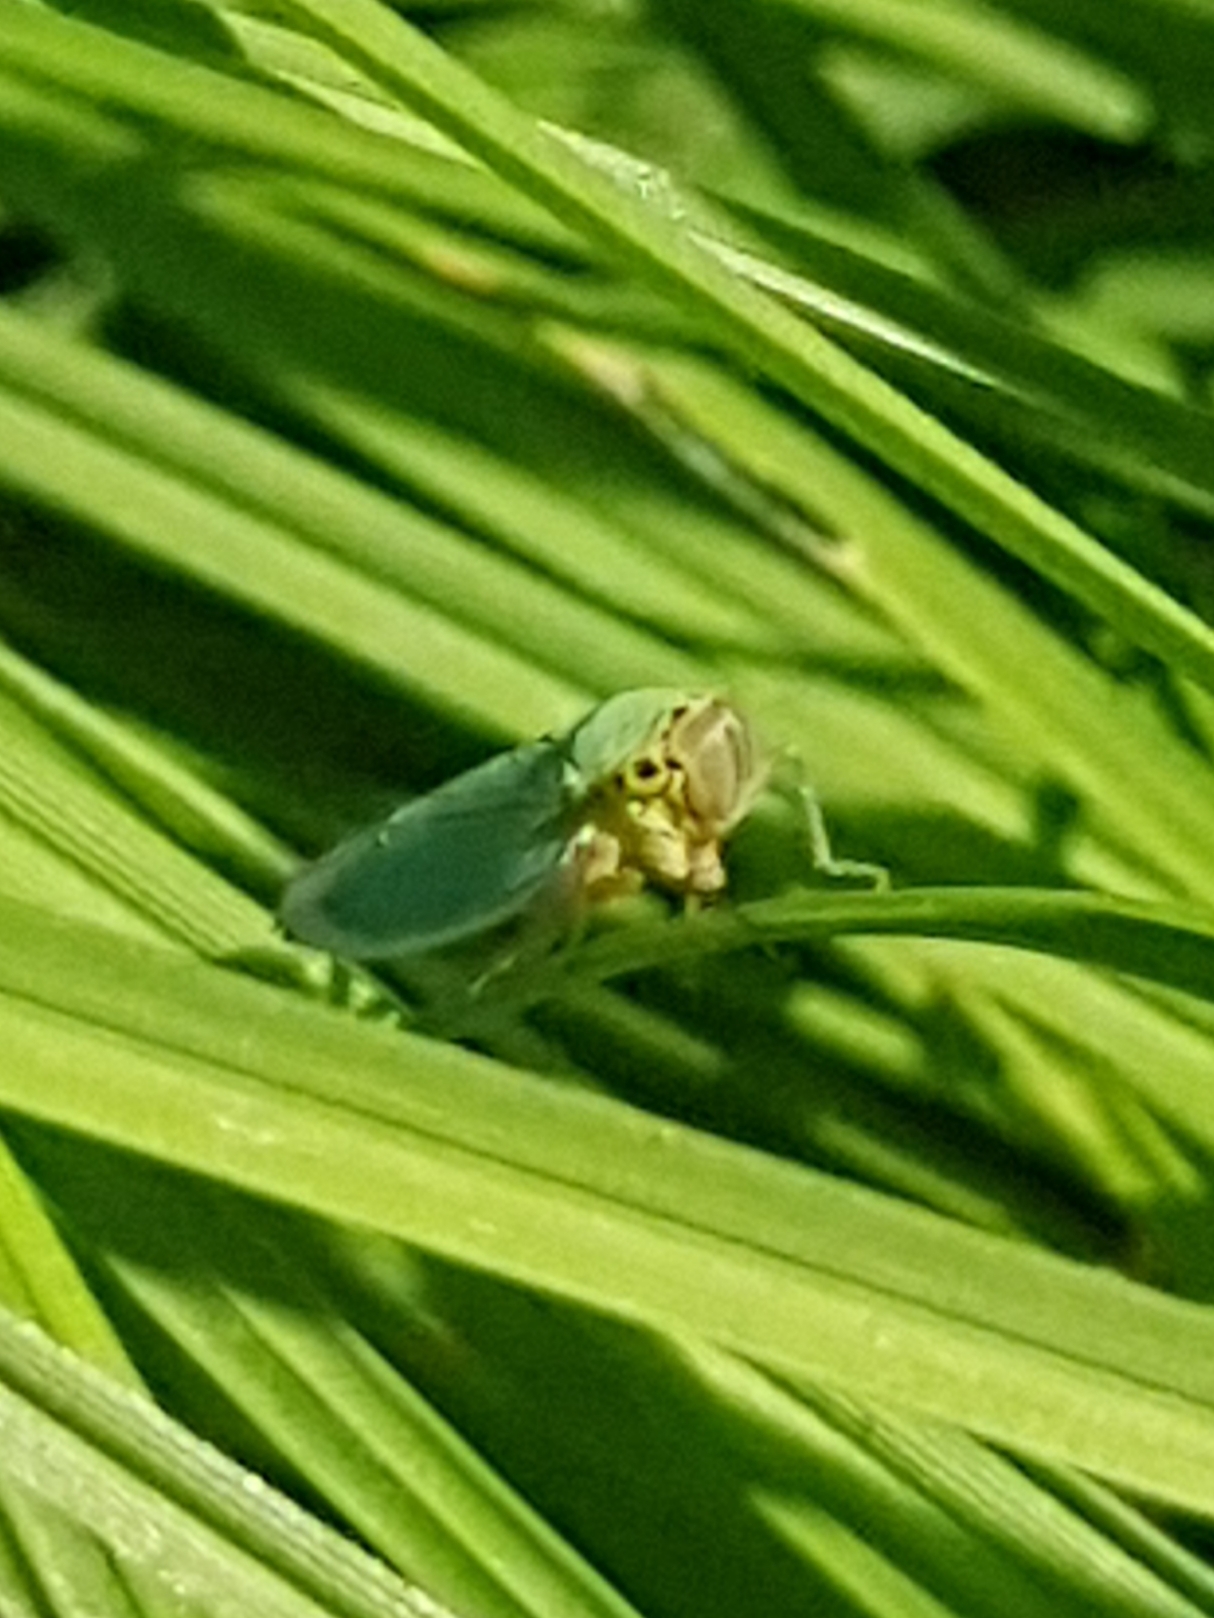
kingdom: Animalia
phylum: Arthropoda
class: Insecta
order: Hemiptera
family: Cicadellidae
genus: Cicadella
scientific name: Cicadella viridis
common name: Leafhopper
